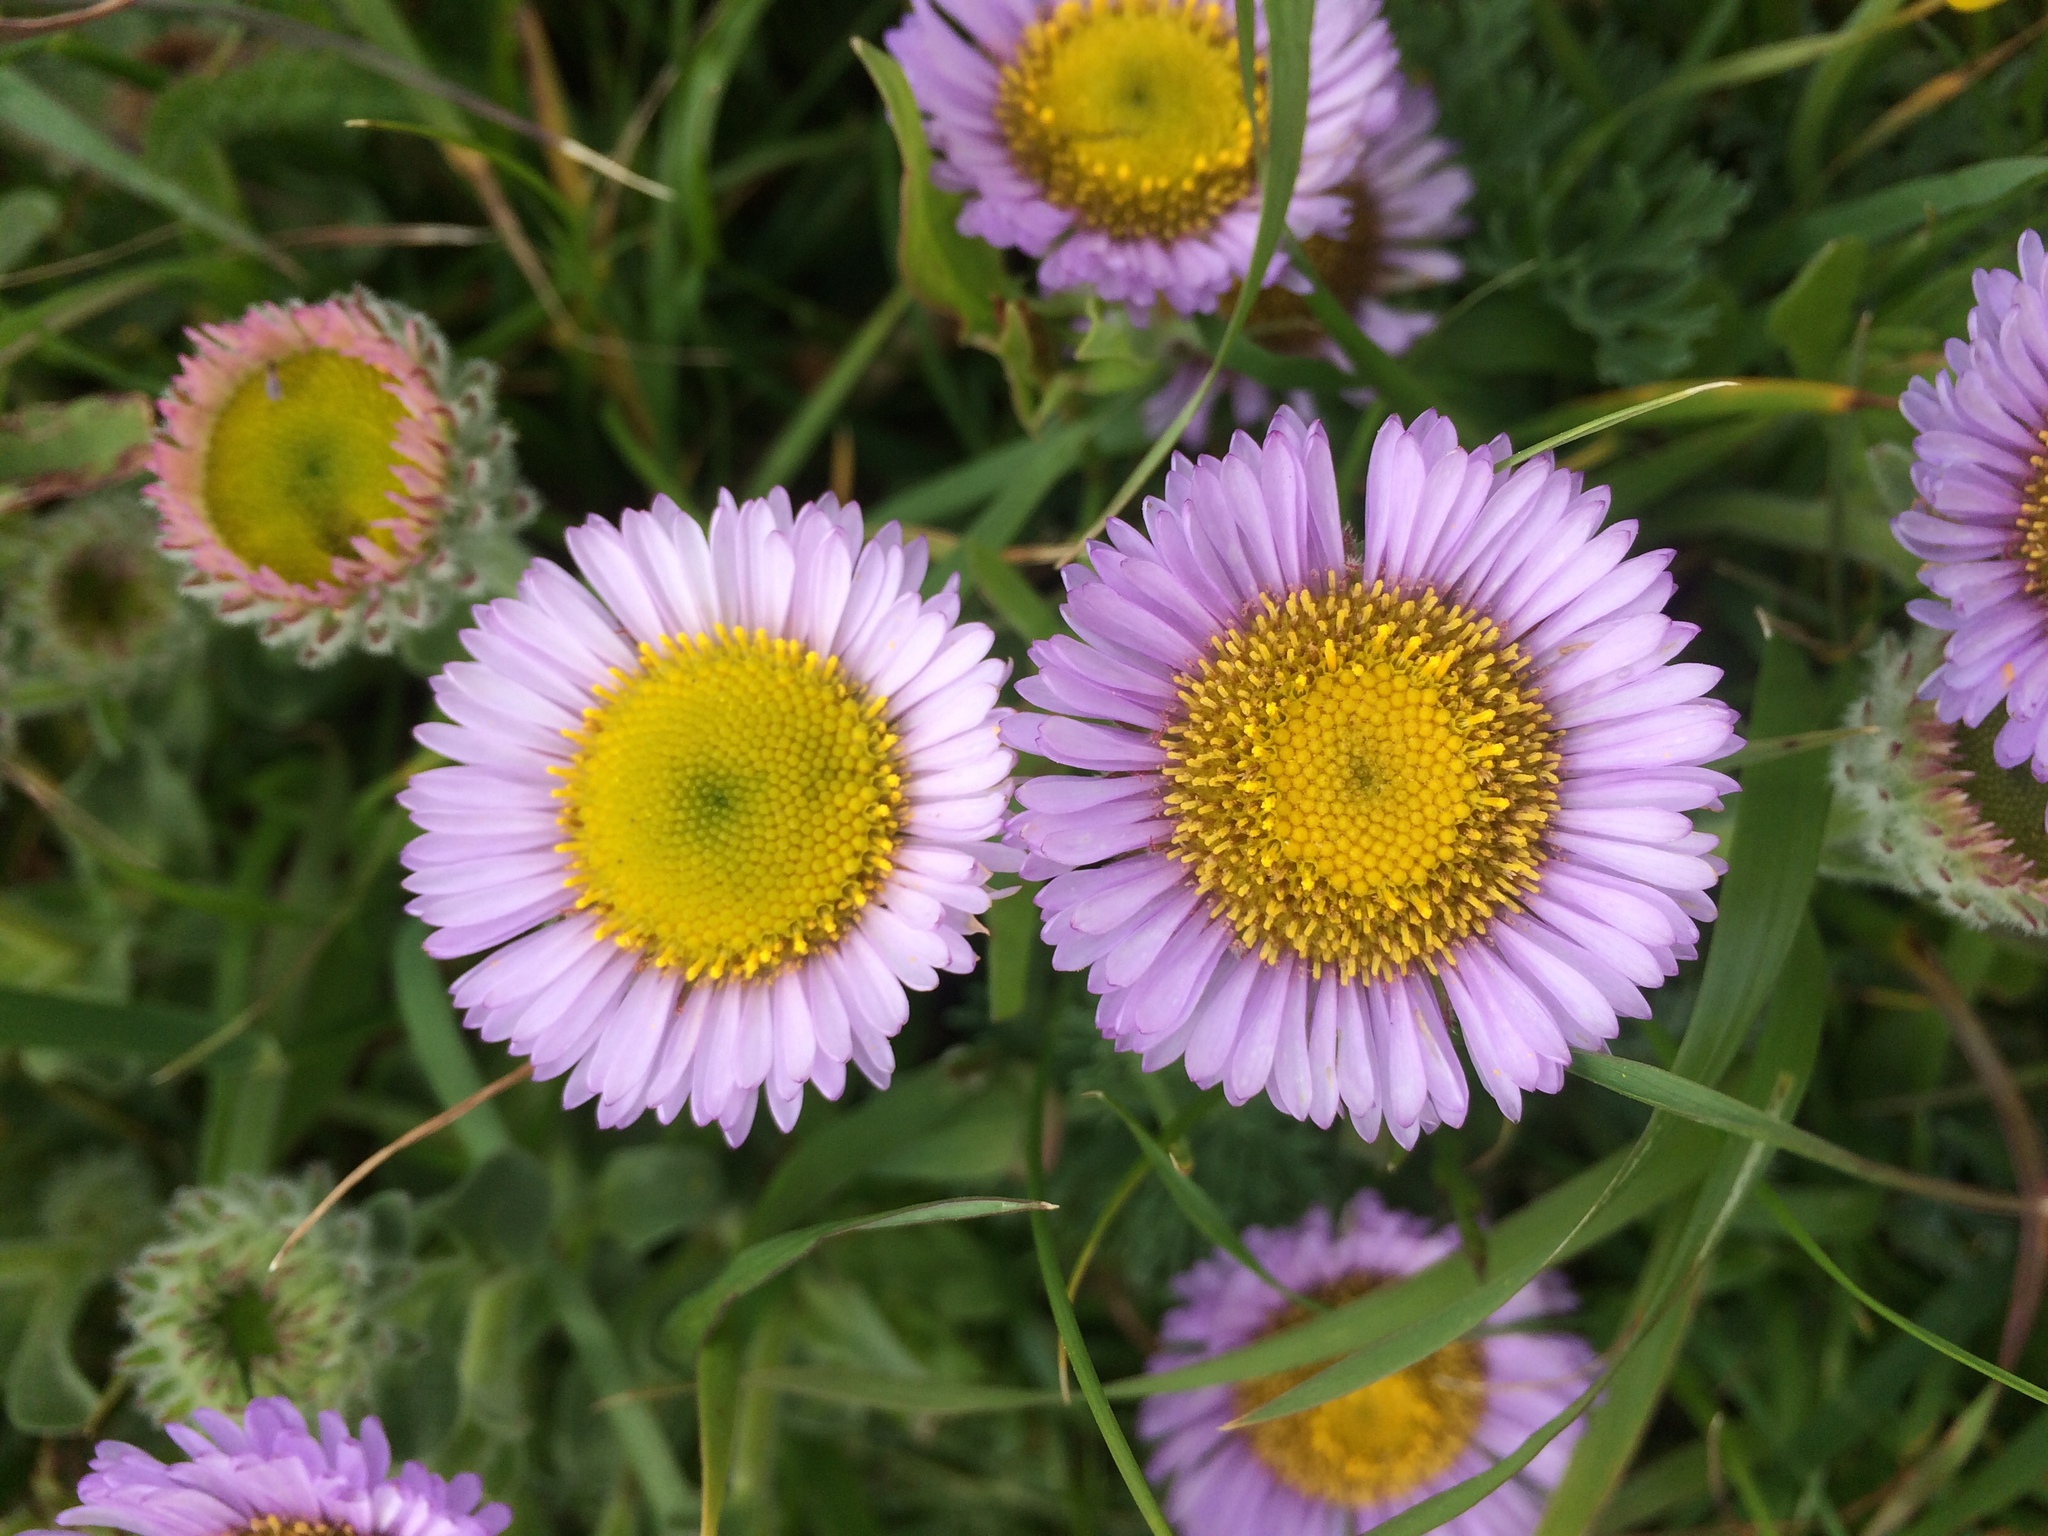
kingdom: Plantae
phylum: Tracheophyta
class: Magnoliopsida
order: Asterales
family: Asteraceae
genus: Erigeron
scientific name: Erigeron glaucus
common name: Seaside daisy
